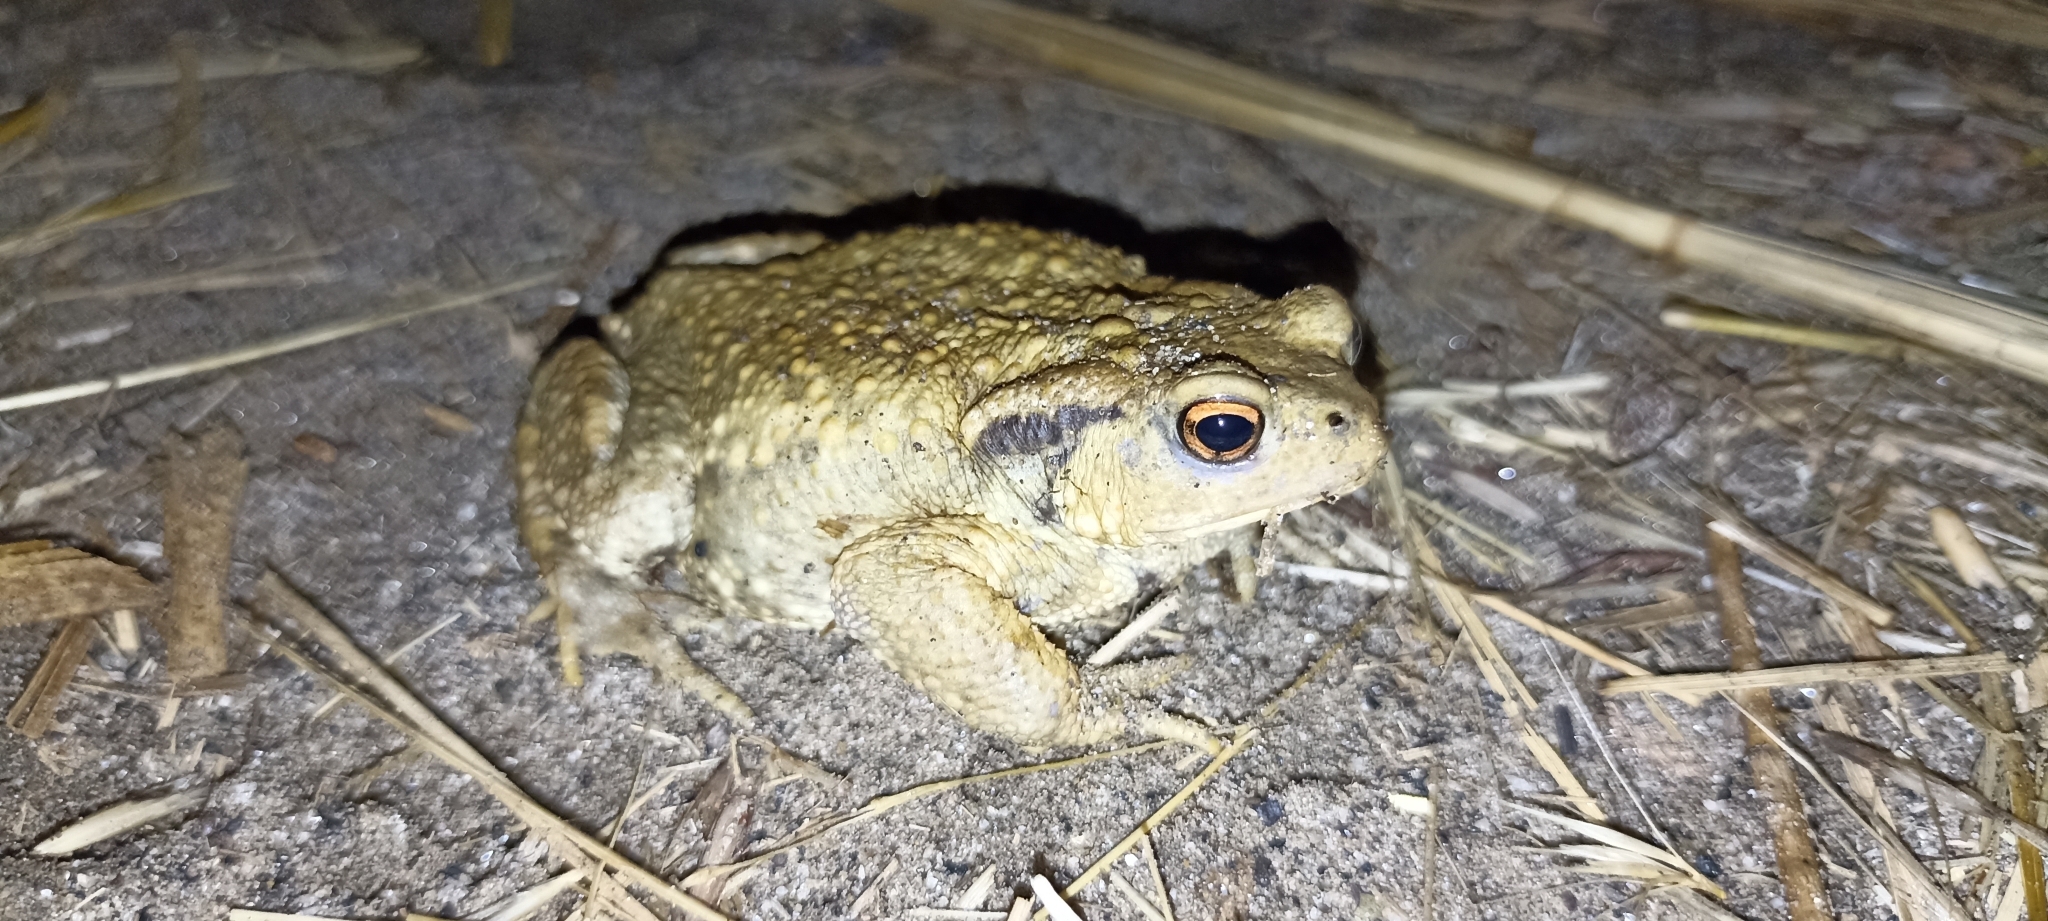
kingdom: Animalia
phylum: Chordata
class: Amphibia
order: Anura
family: Bufonidae
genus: Bufo
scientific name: Bufo spinosus
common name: Western common toad
